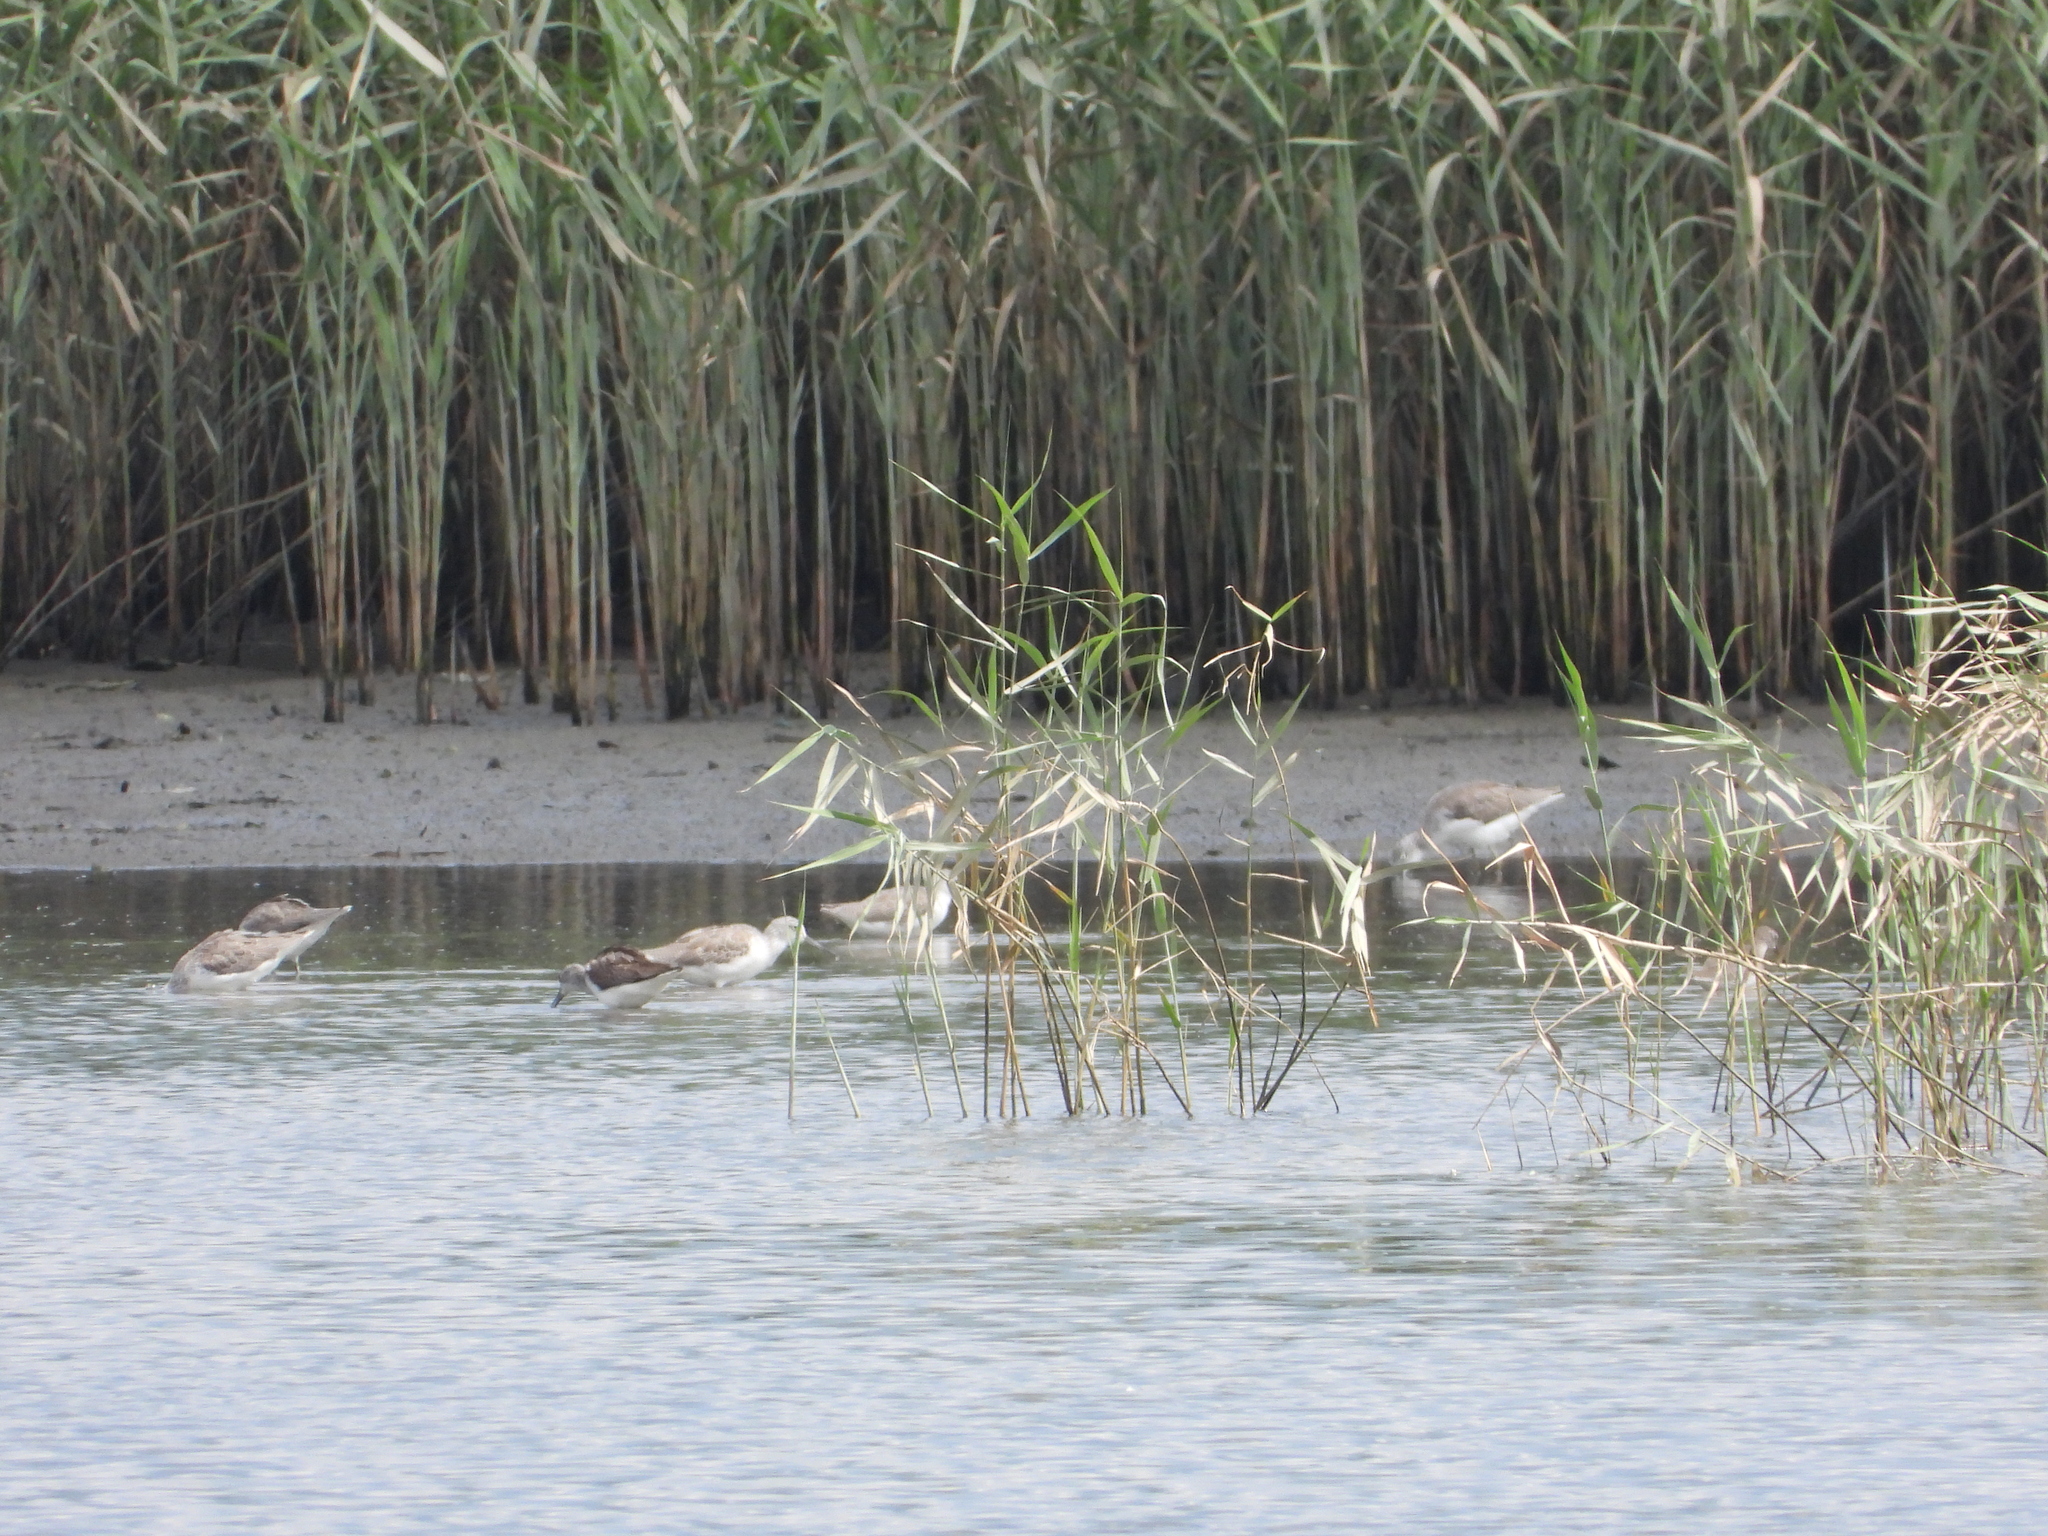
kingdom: Animalia
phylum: Chordata
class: Aves
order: Charadriiformes
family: Scolopacidae
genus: Tringa
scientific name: Tringa nebularia
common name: Common greenshank
